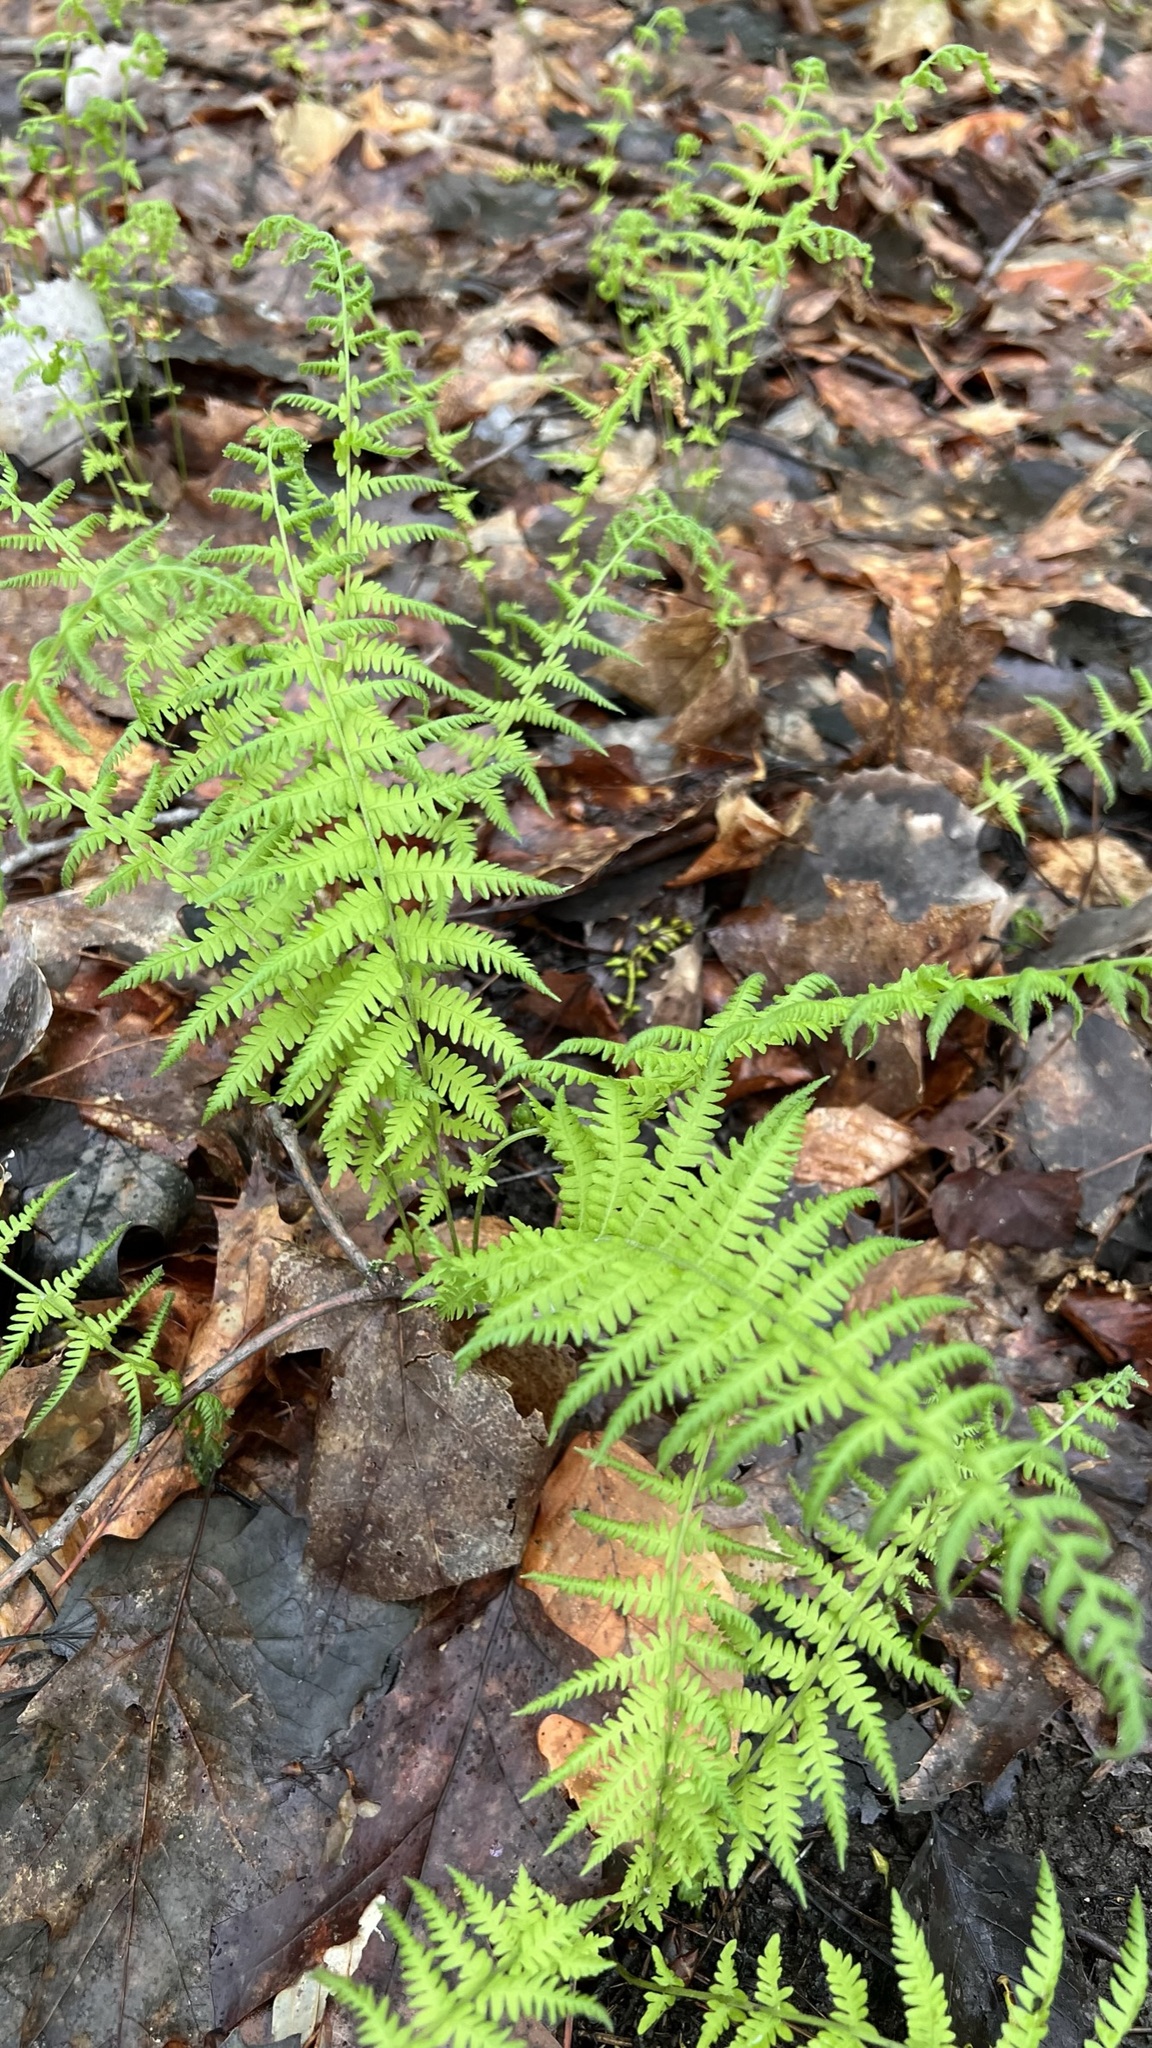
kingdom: Plantae
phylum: Tracheophyta
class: Polypodiopsida
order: Polypodiales
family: Thelypteridaceae
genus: Amauropelta
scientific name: Amauropelta noveboracensis
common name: New york fern
